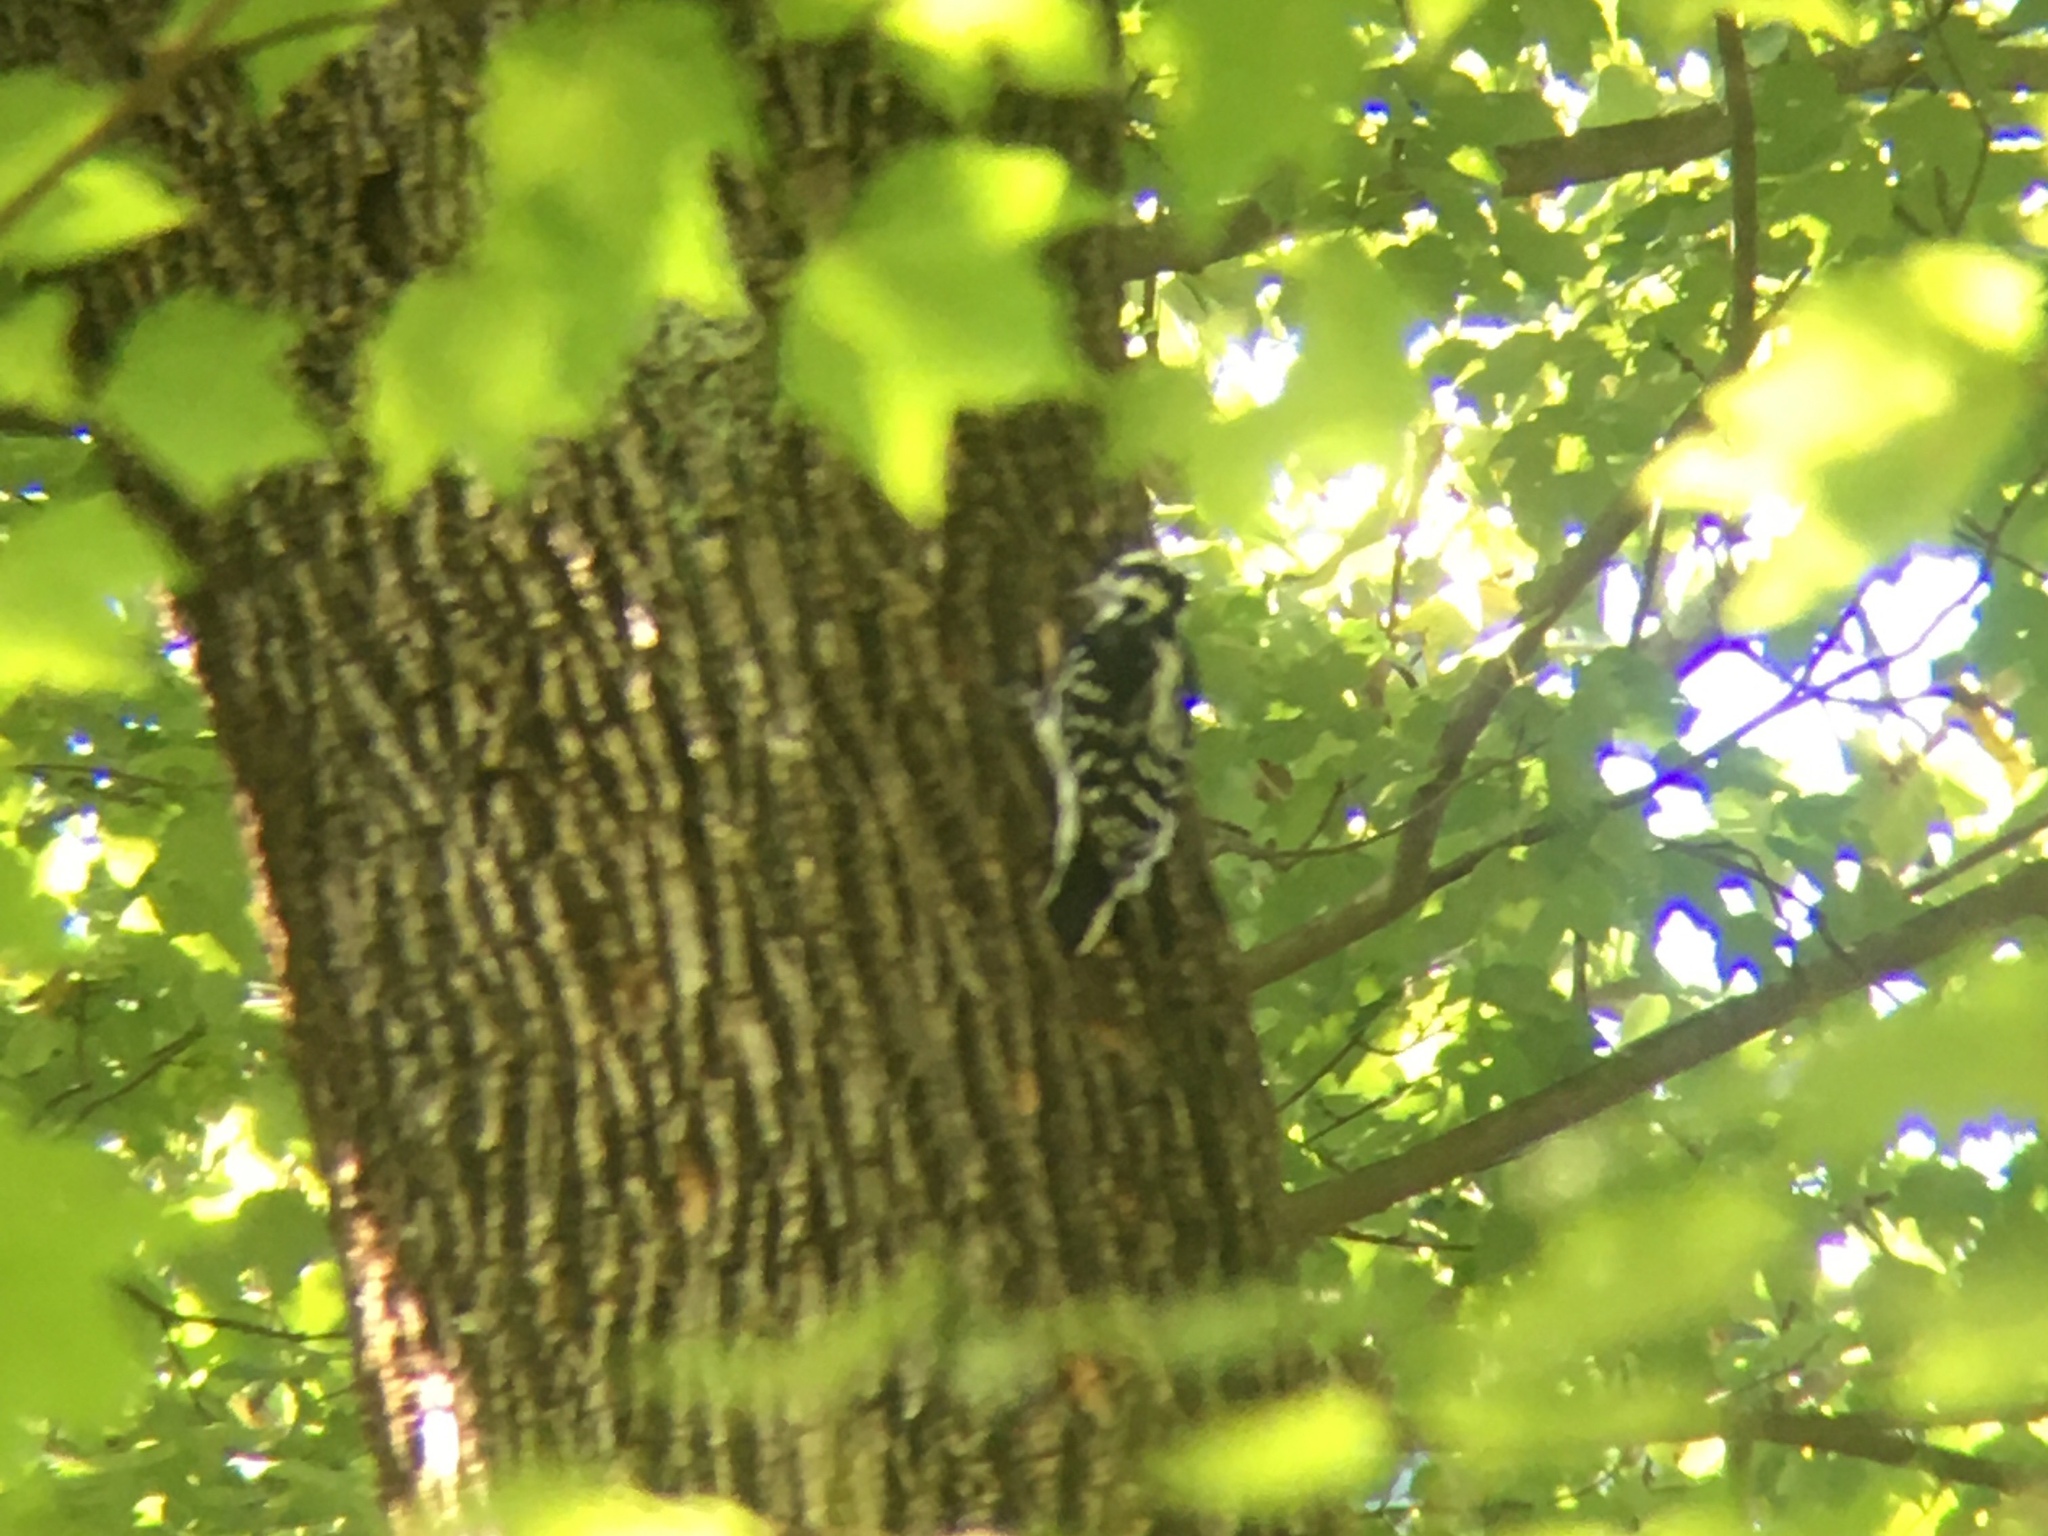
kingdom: Animalia
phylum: Chordata
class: Aves
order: Piciformes
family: Picidae
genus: Leuconotopicus
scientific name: Leuconotopicus villosus
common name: Hairy woodpecker
